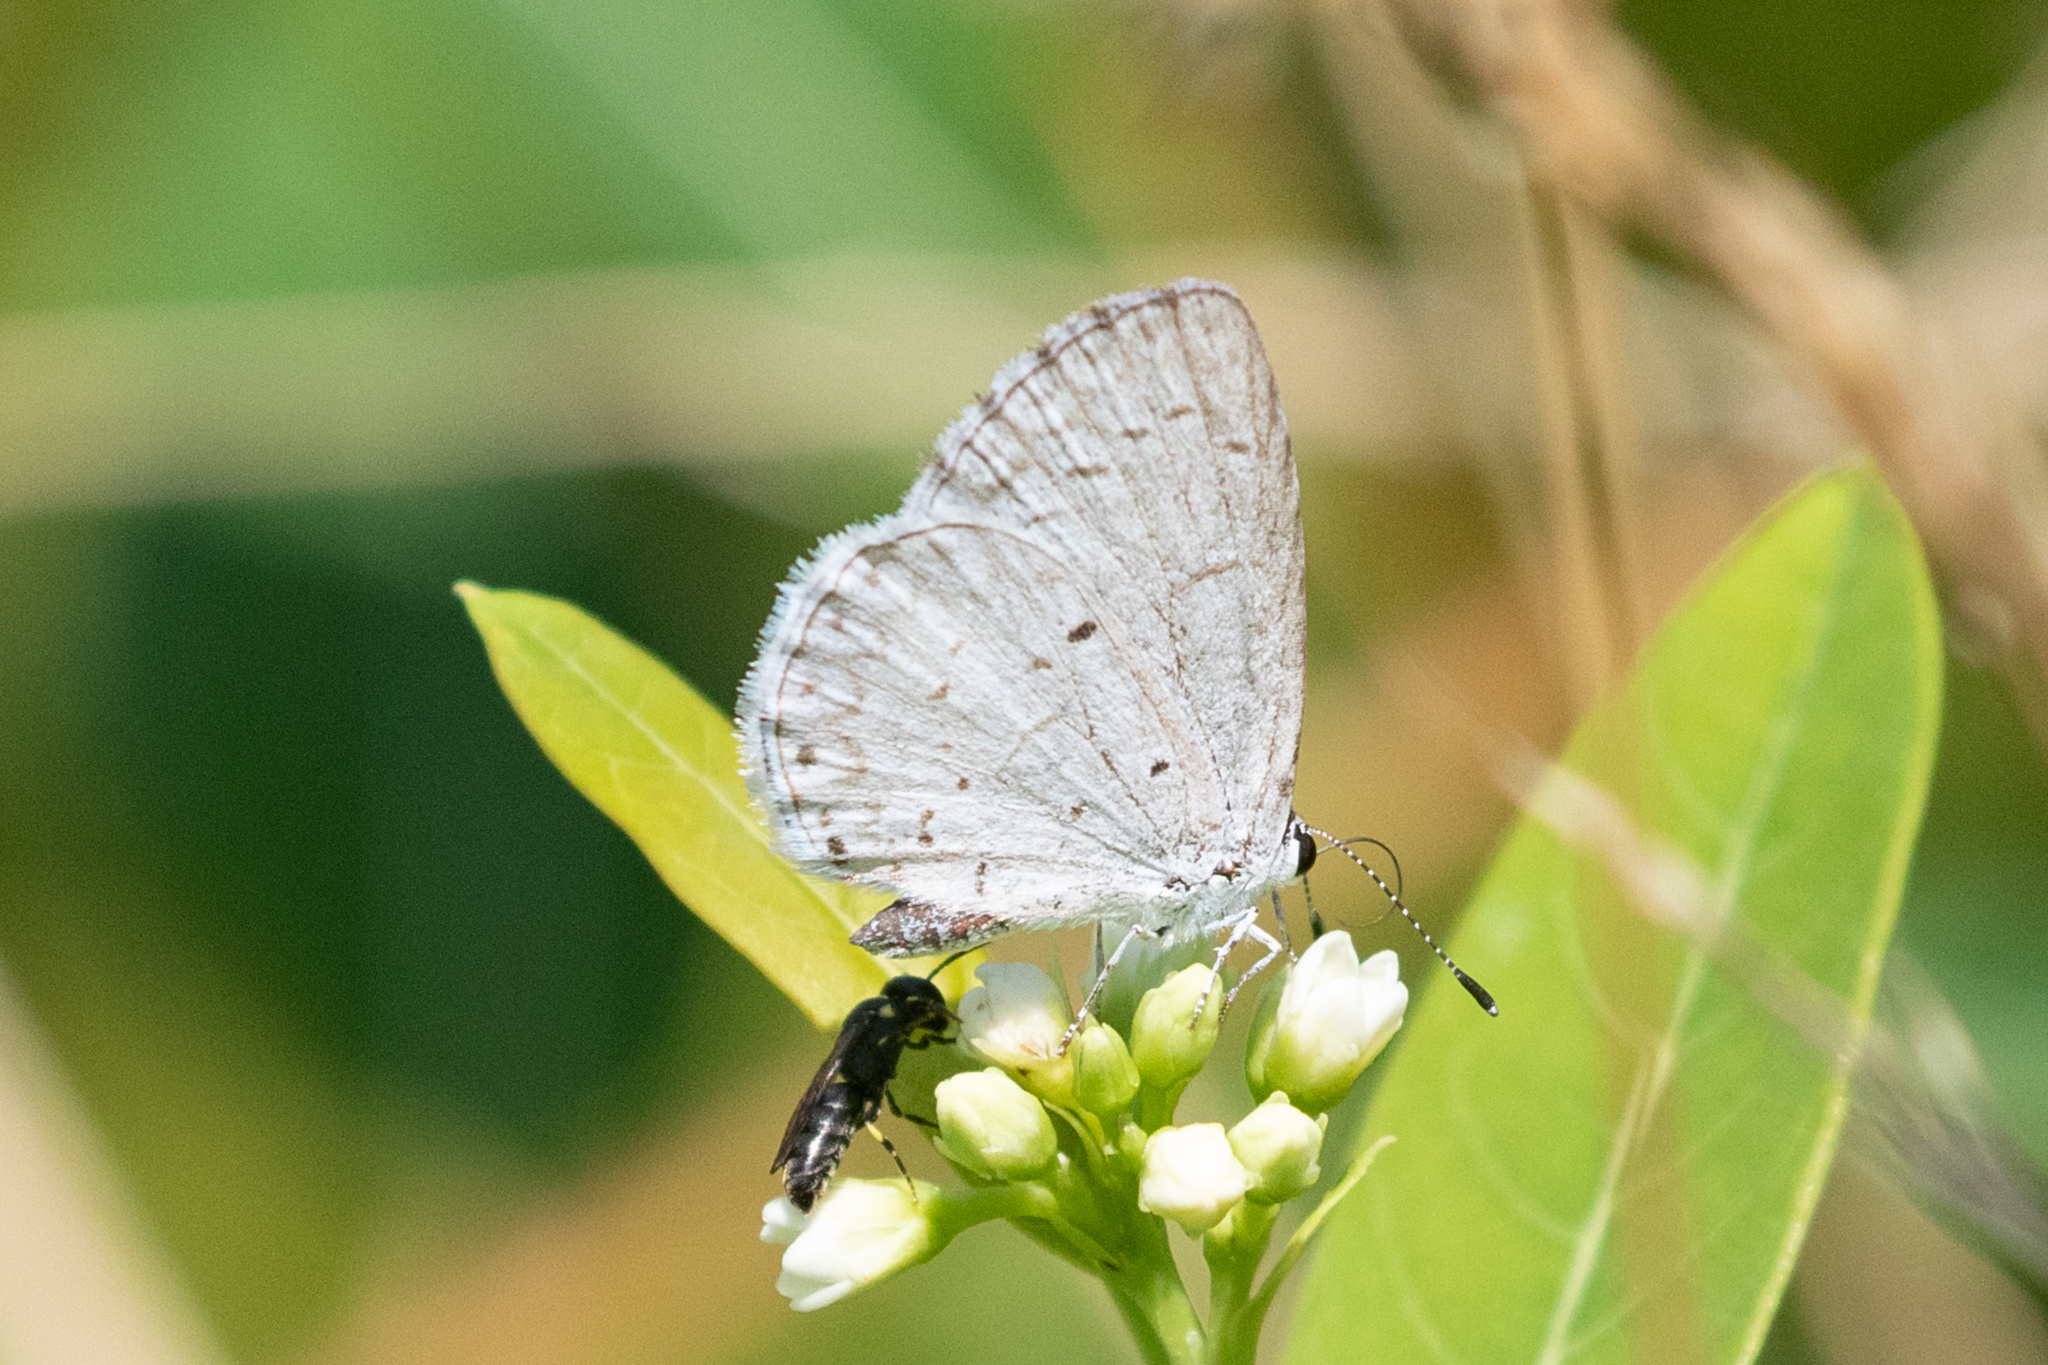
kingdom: Animalia
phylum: Arthropoda
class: Insecta
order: Lepidoptera
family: Lycaenidae
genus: Cyaniris
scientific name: Cyaniris neglecta
